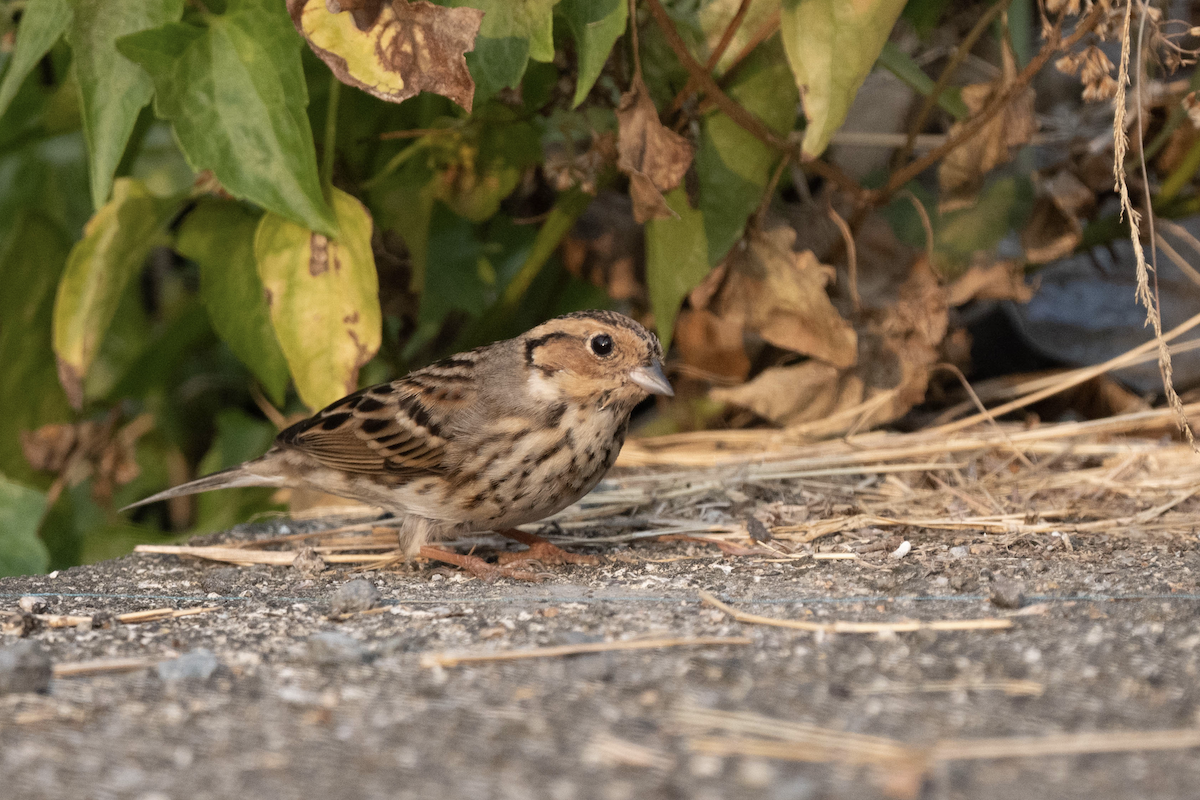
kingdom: Animalia
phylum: Chordata
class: Aves
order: Passeriformes
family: Emberizidae
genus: Emberiza
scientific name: Emberiza pusilla
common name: Little bunting
